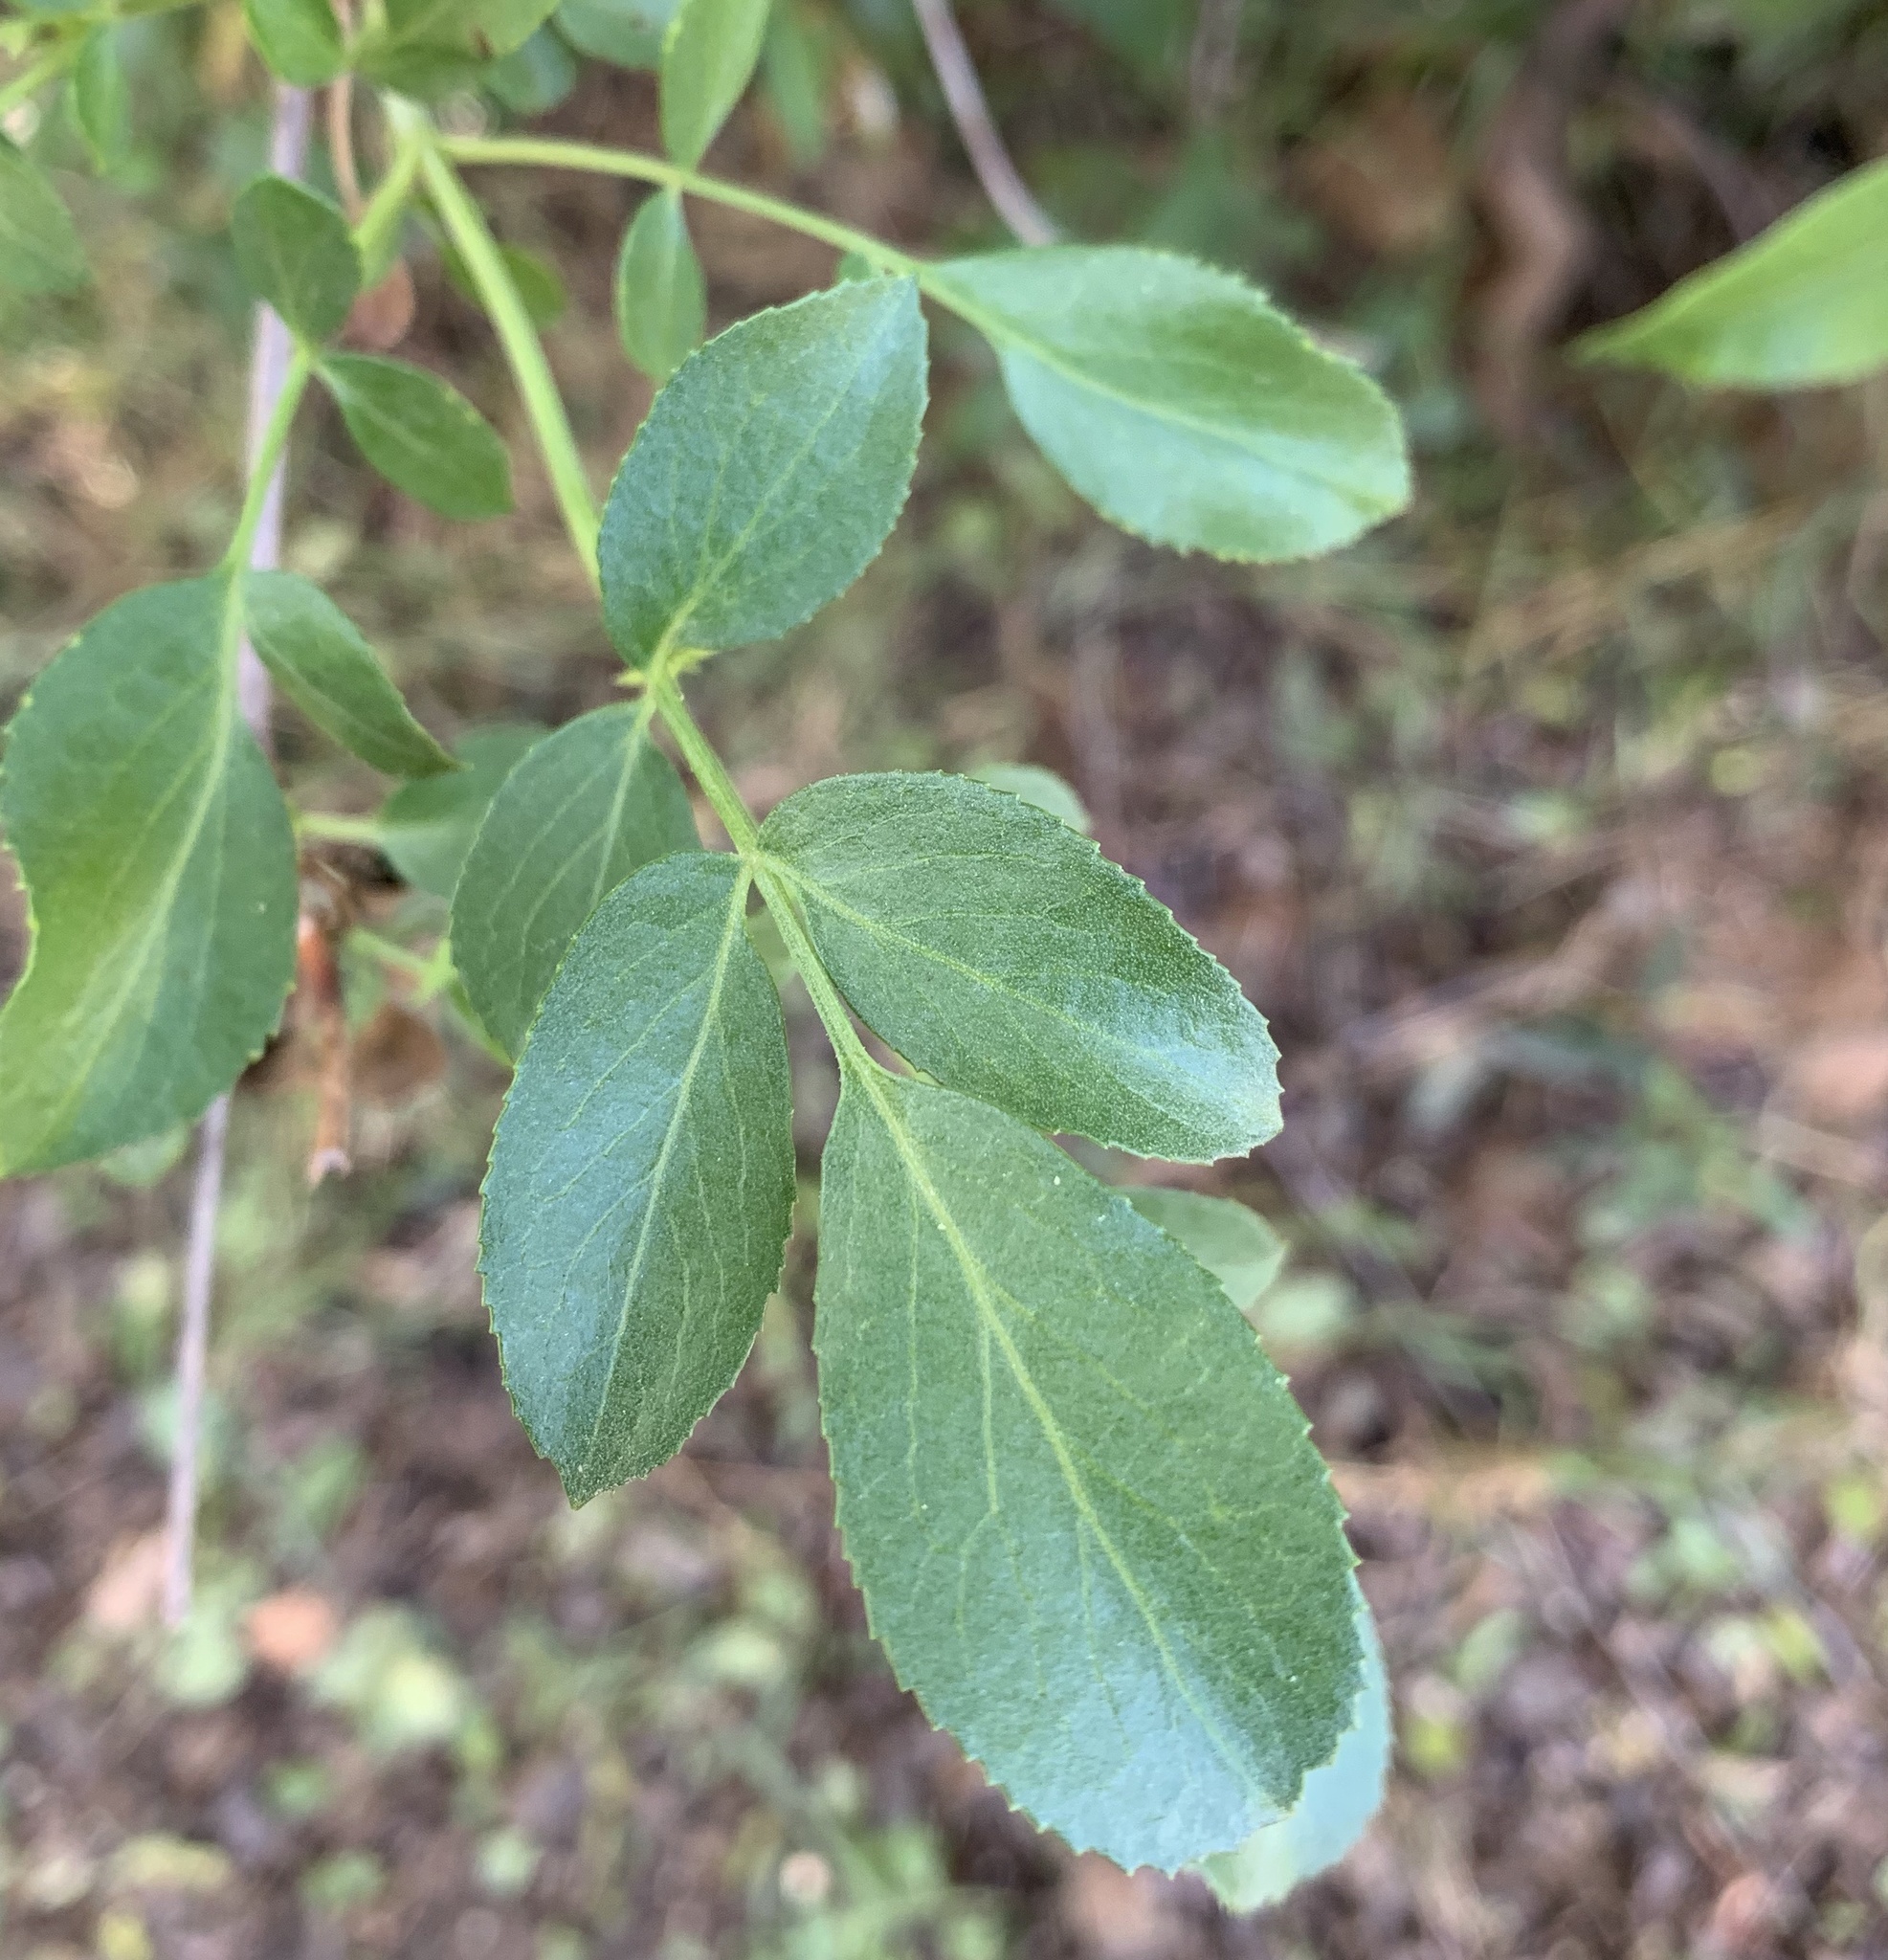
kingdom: Plantae
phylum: Tracheophyta
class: Magnoliopsida
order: Dipsacales
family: Viburnaceae
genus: Sambucus
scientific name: Sambucus cerulea
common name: Blue elder
